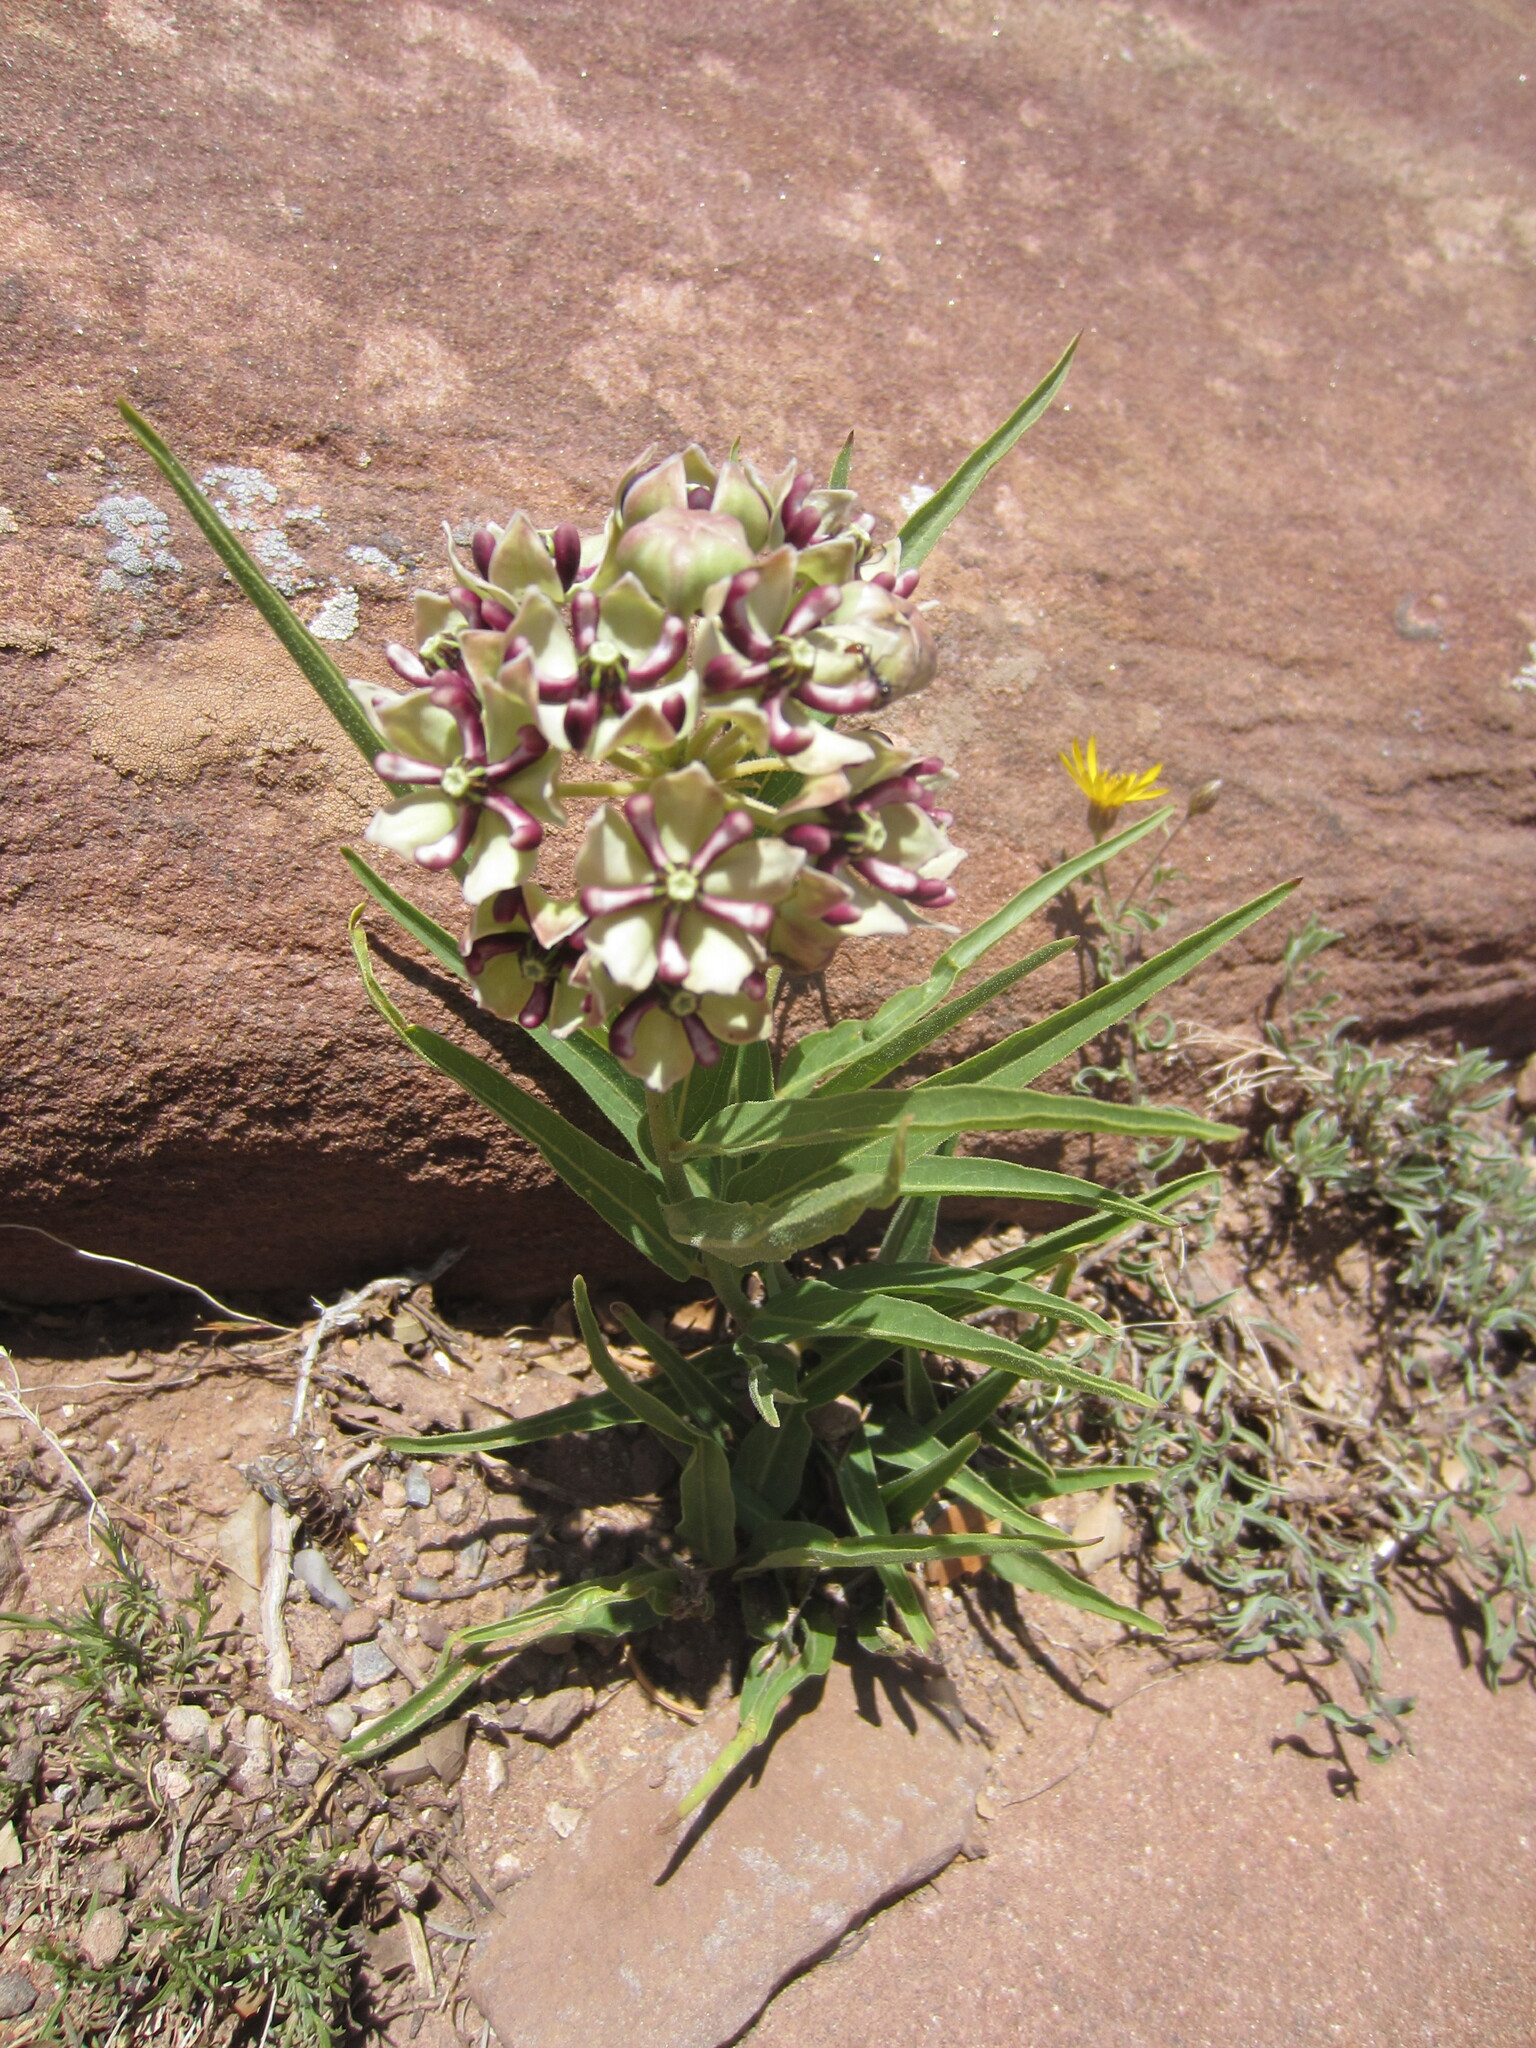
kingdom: Plantae
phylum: Tracheophyta
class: Magnoliopsida
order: Gentianales
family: Apocynaceae
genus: Asclepias
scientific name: Asclepias asperula
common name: Antelope horns
